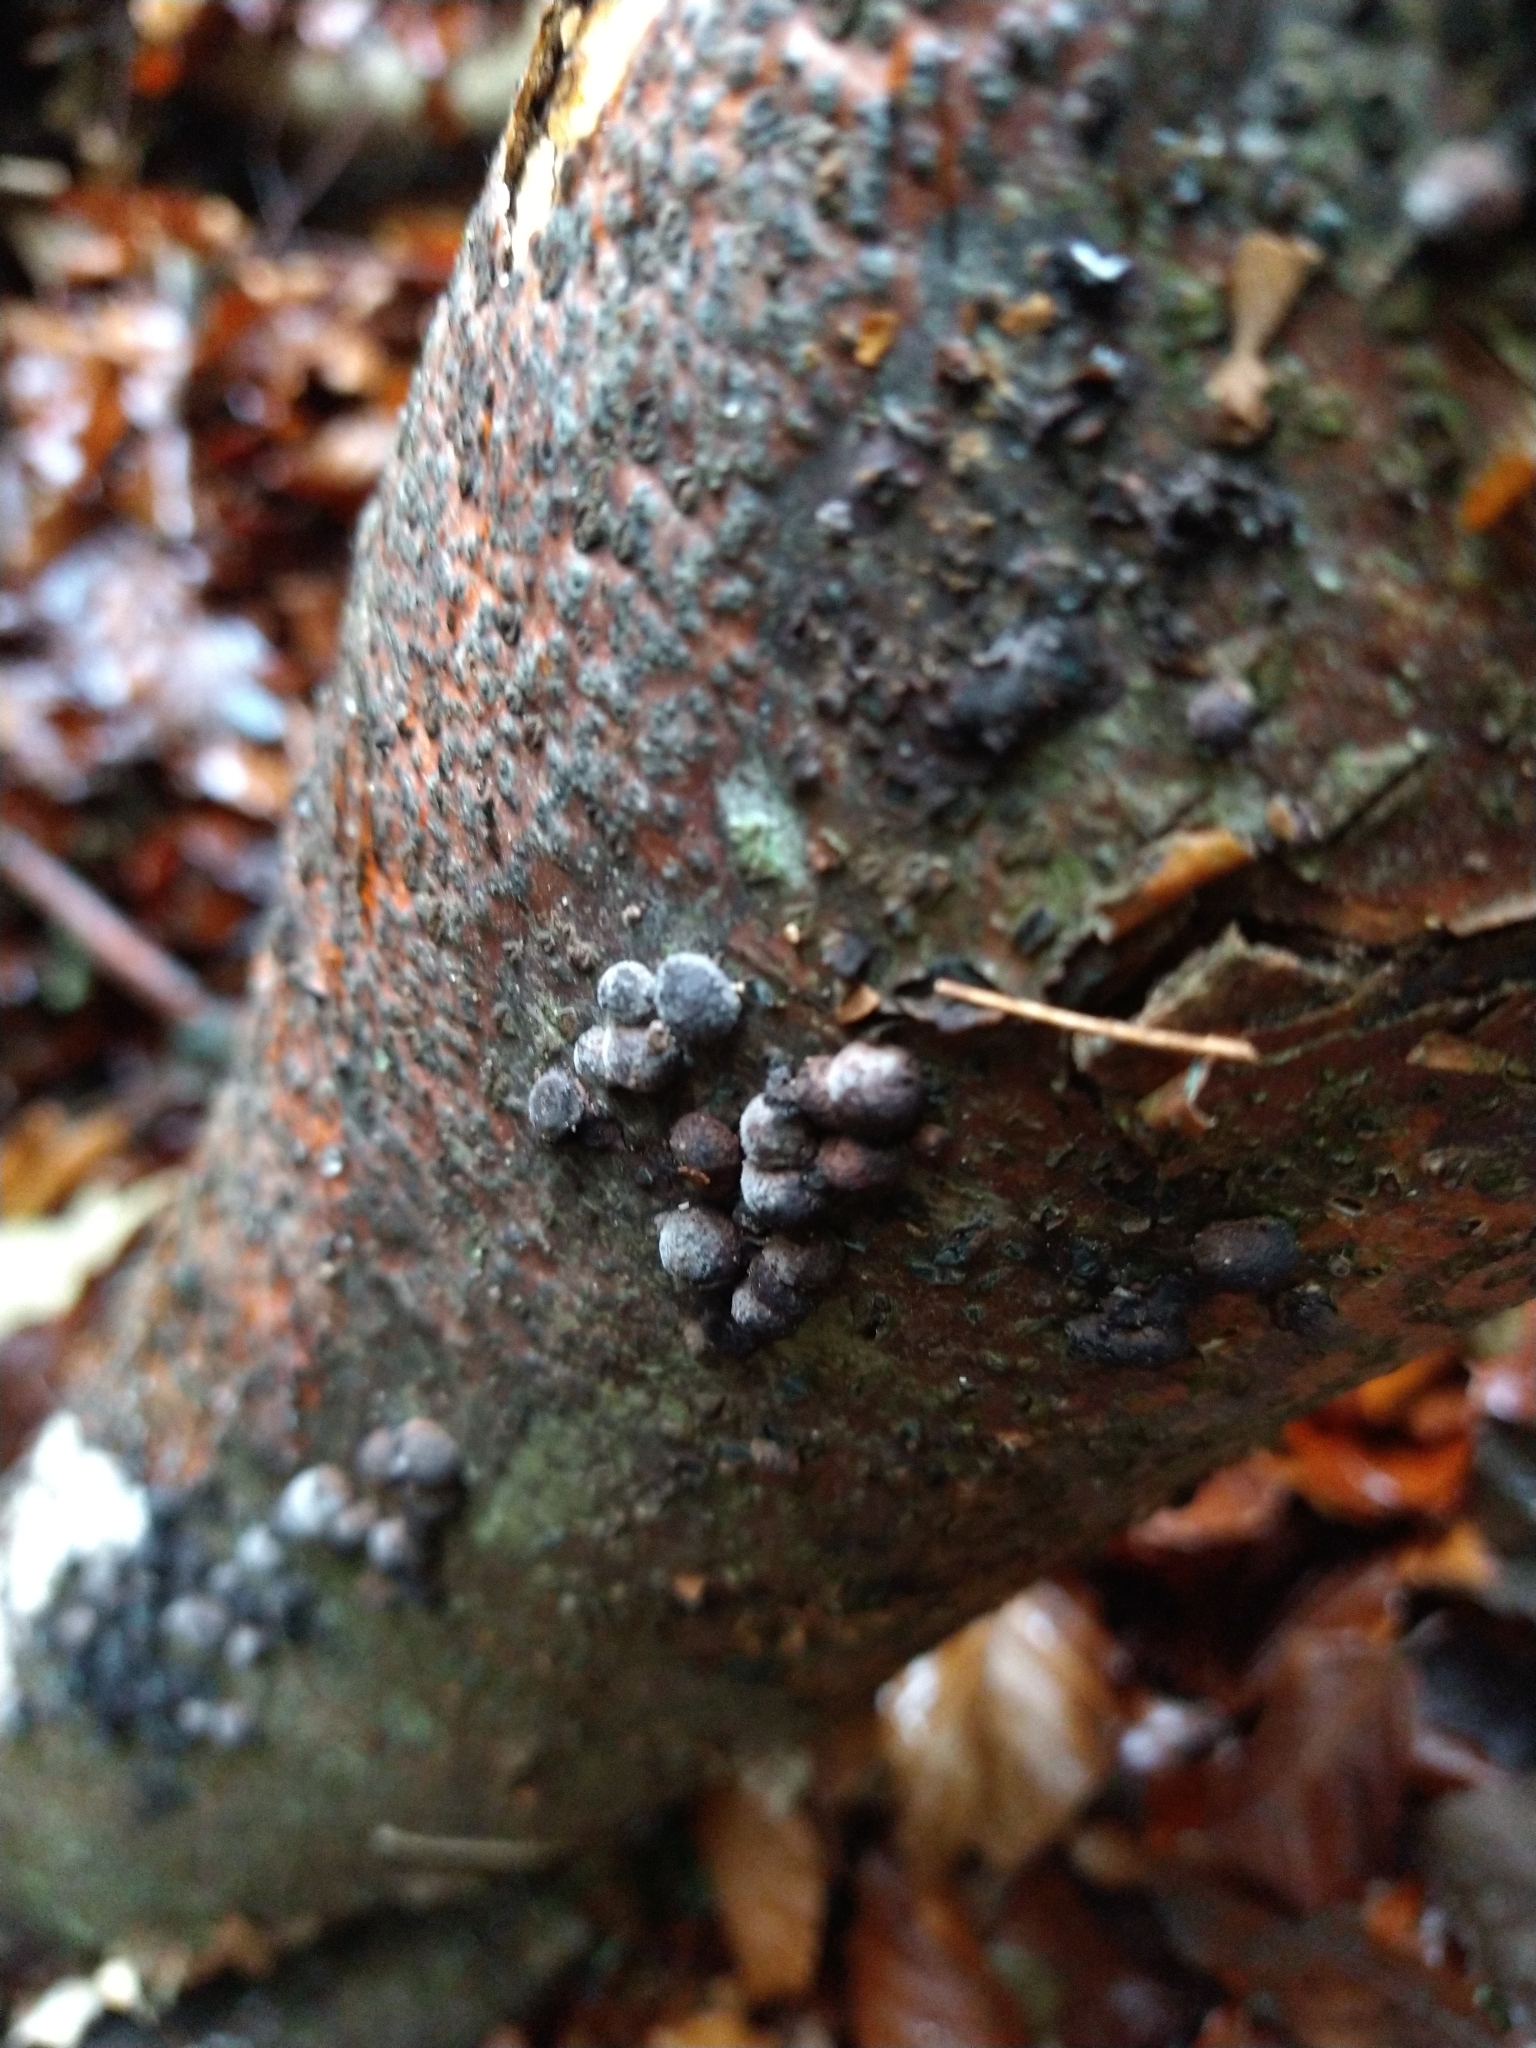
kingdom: Fungi
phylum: Ascomycota
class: Sordariomycetes
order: Xylariales
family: Hypoxylaceae
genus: Hypoxylon
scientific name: Hypoxylon fragiforme
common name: Beech woodwart
